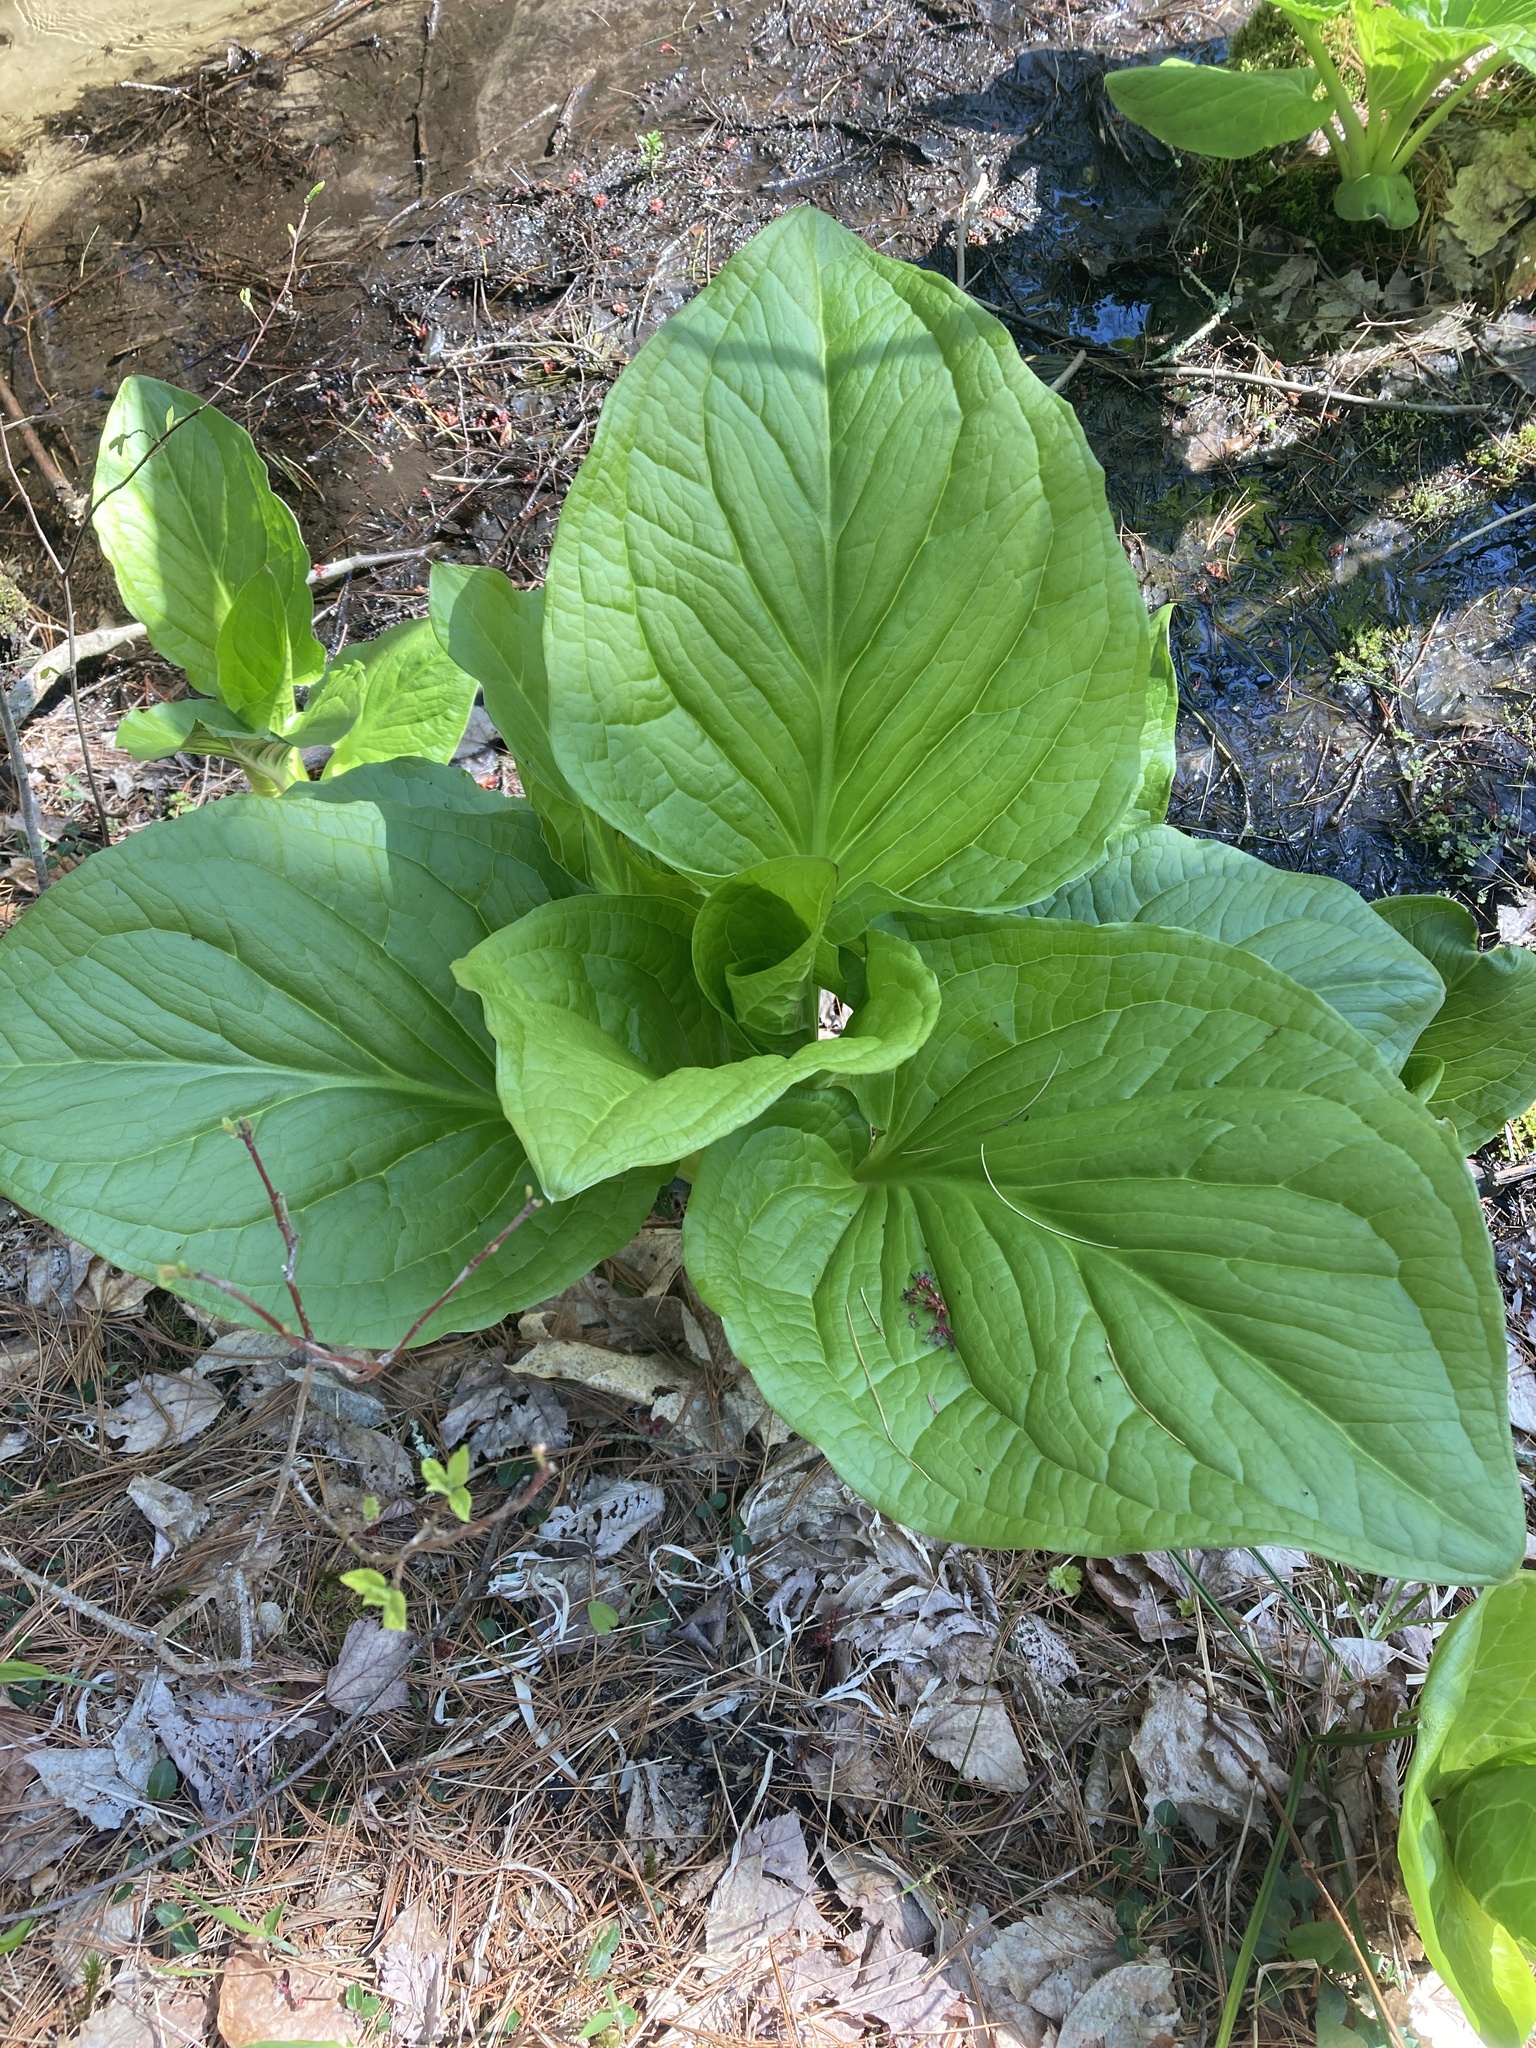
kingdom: Plantae
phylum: Tracheophyta
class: Liliopsida
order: Alismatales
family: Araceae
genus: Symplocarpus
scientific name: Symplocarpus foetidus
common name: Eastern skunk cabbage
